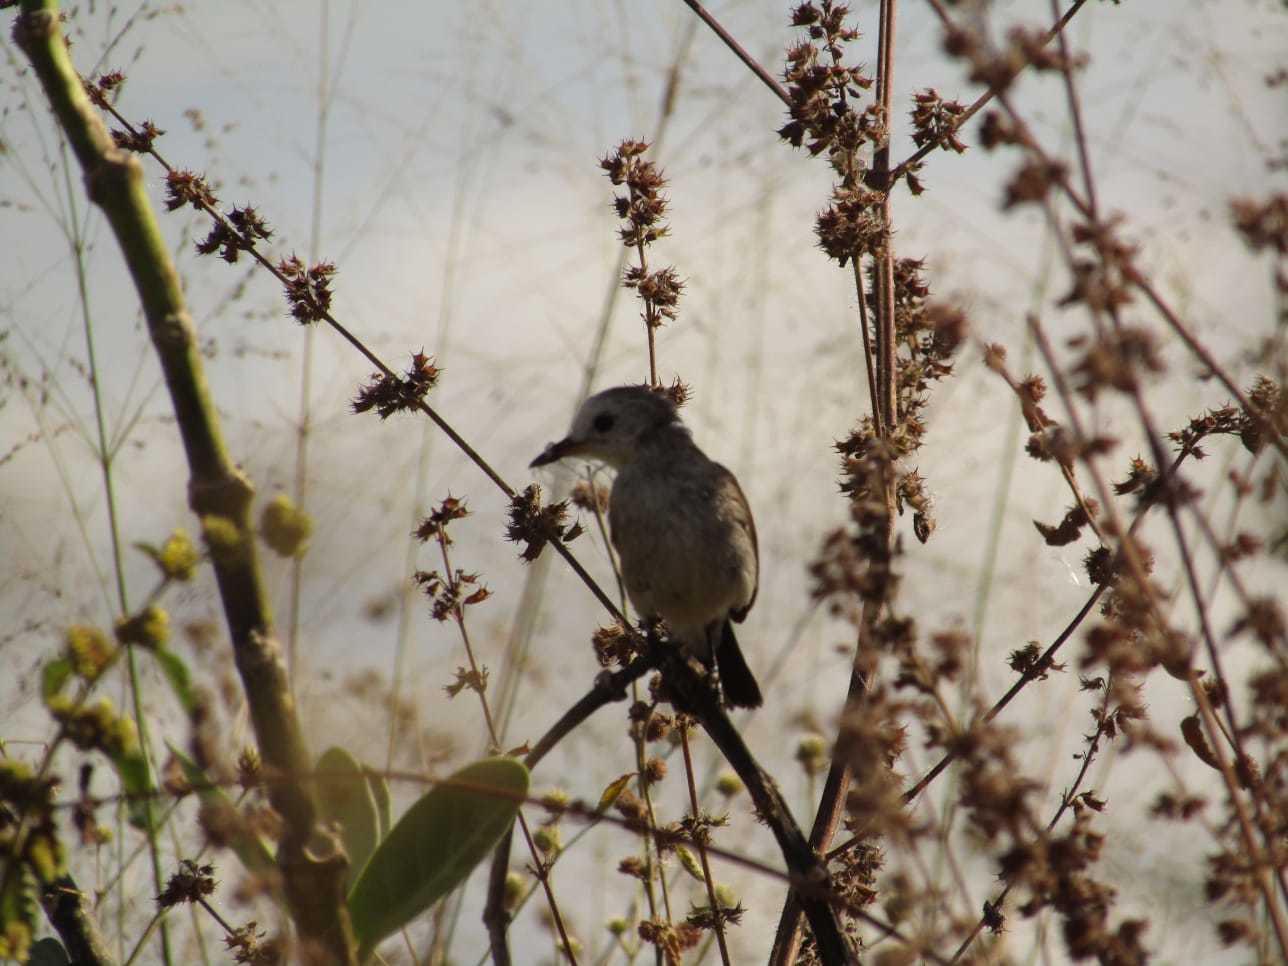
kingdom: Animalia
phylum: Chordata
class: Aves
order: Passeriformes
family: Tyrannidae
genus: Arundinicola
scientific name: Arundinicola leucocephala
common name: White-headed marsh tyrant
